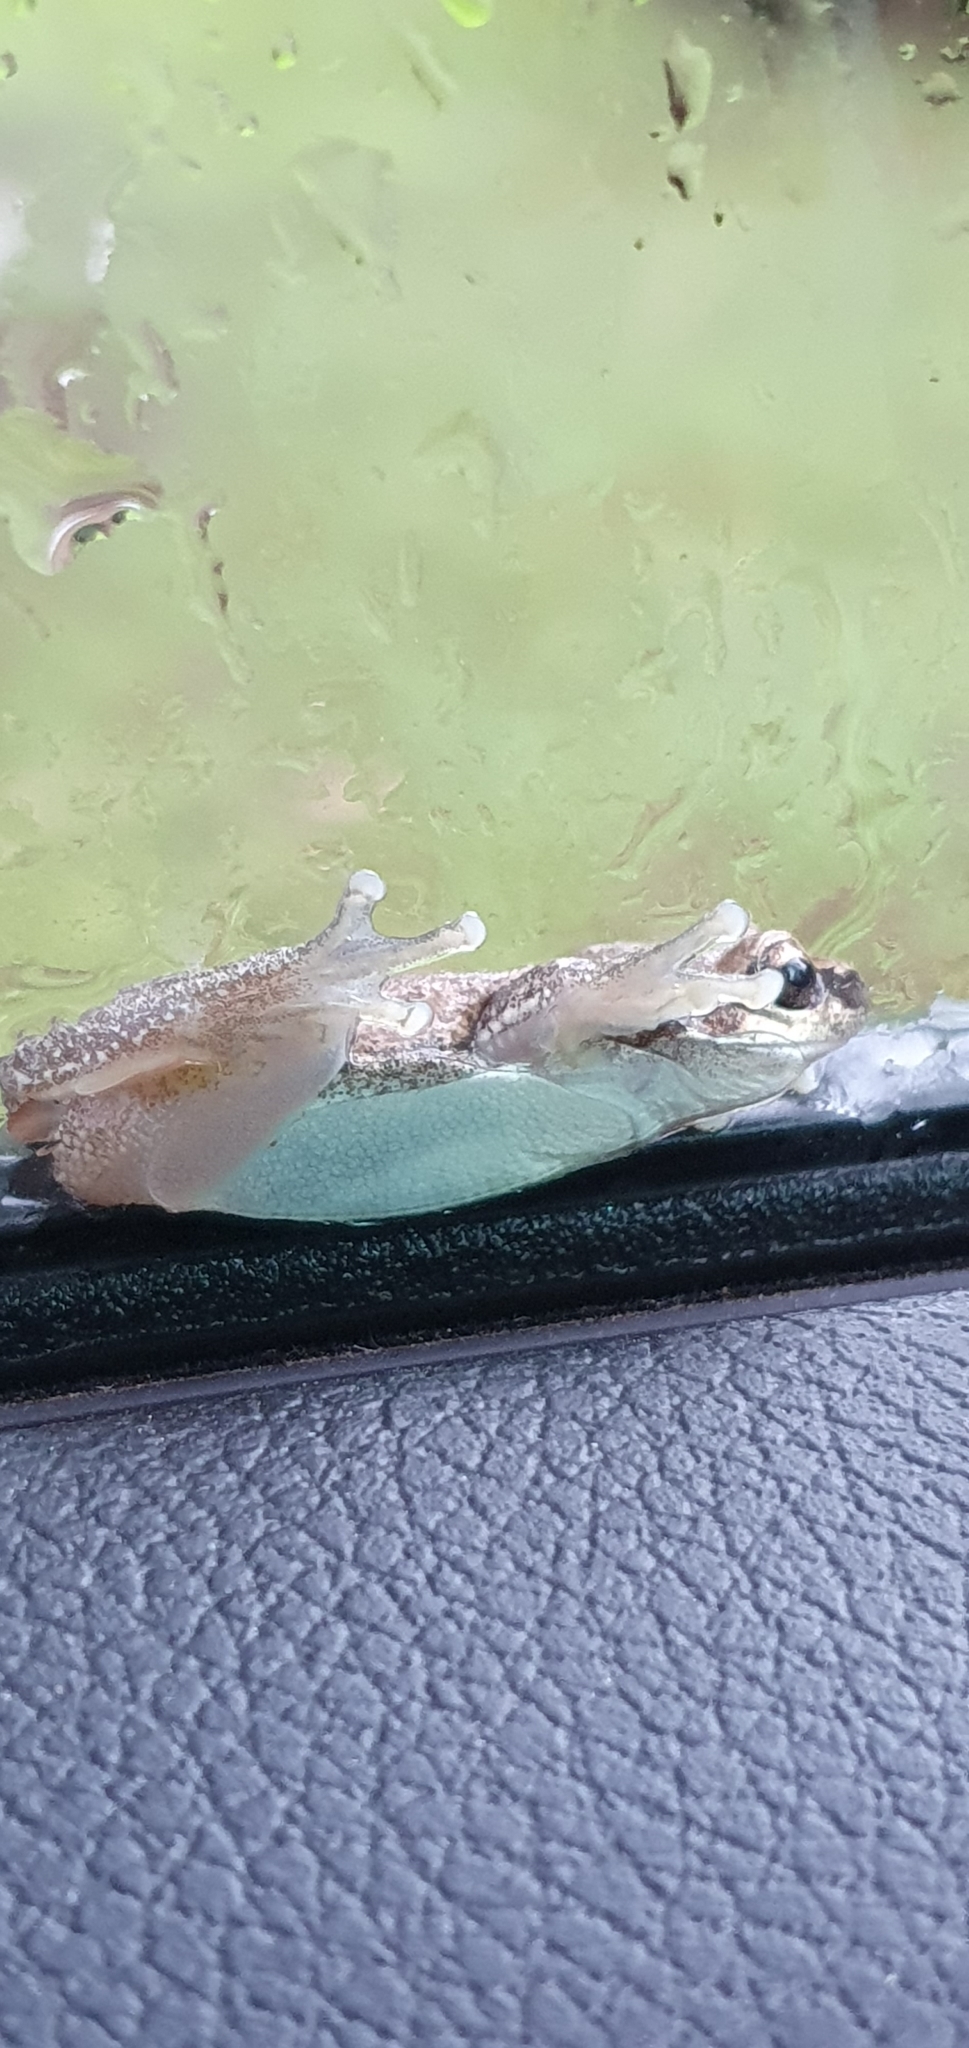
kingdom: Animalia
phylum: Chordata
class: Amphibia
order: Anura
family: Pelodryadidae
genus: Litoria
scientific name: Litoria rubella
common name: Desert tree frog
